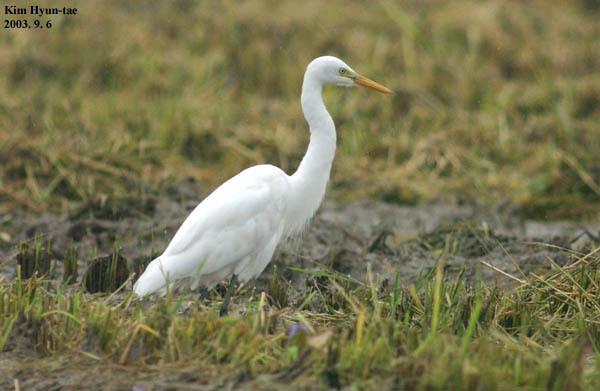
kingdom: Animalia
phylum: Chordata
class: Aves
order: Pelecaniformes
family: Ardeidae
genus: Egretta
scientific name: Egretta intermedia
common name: Intermediate egret
